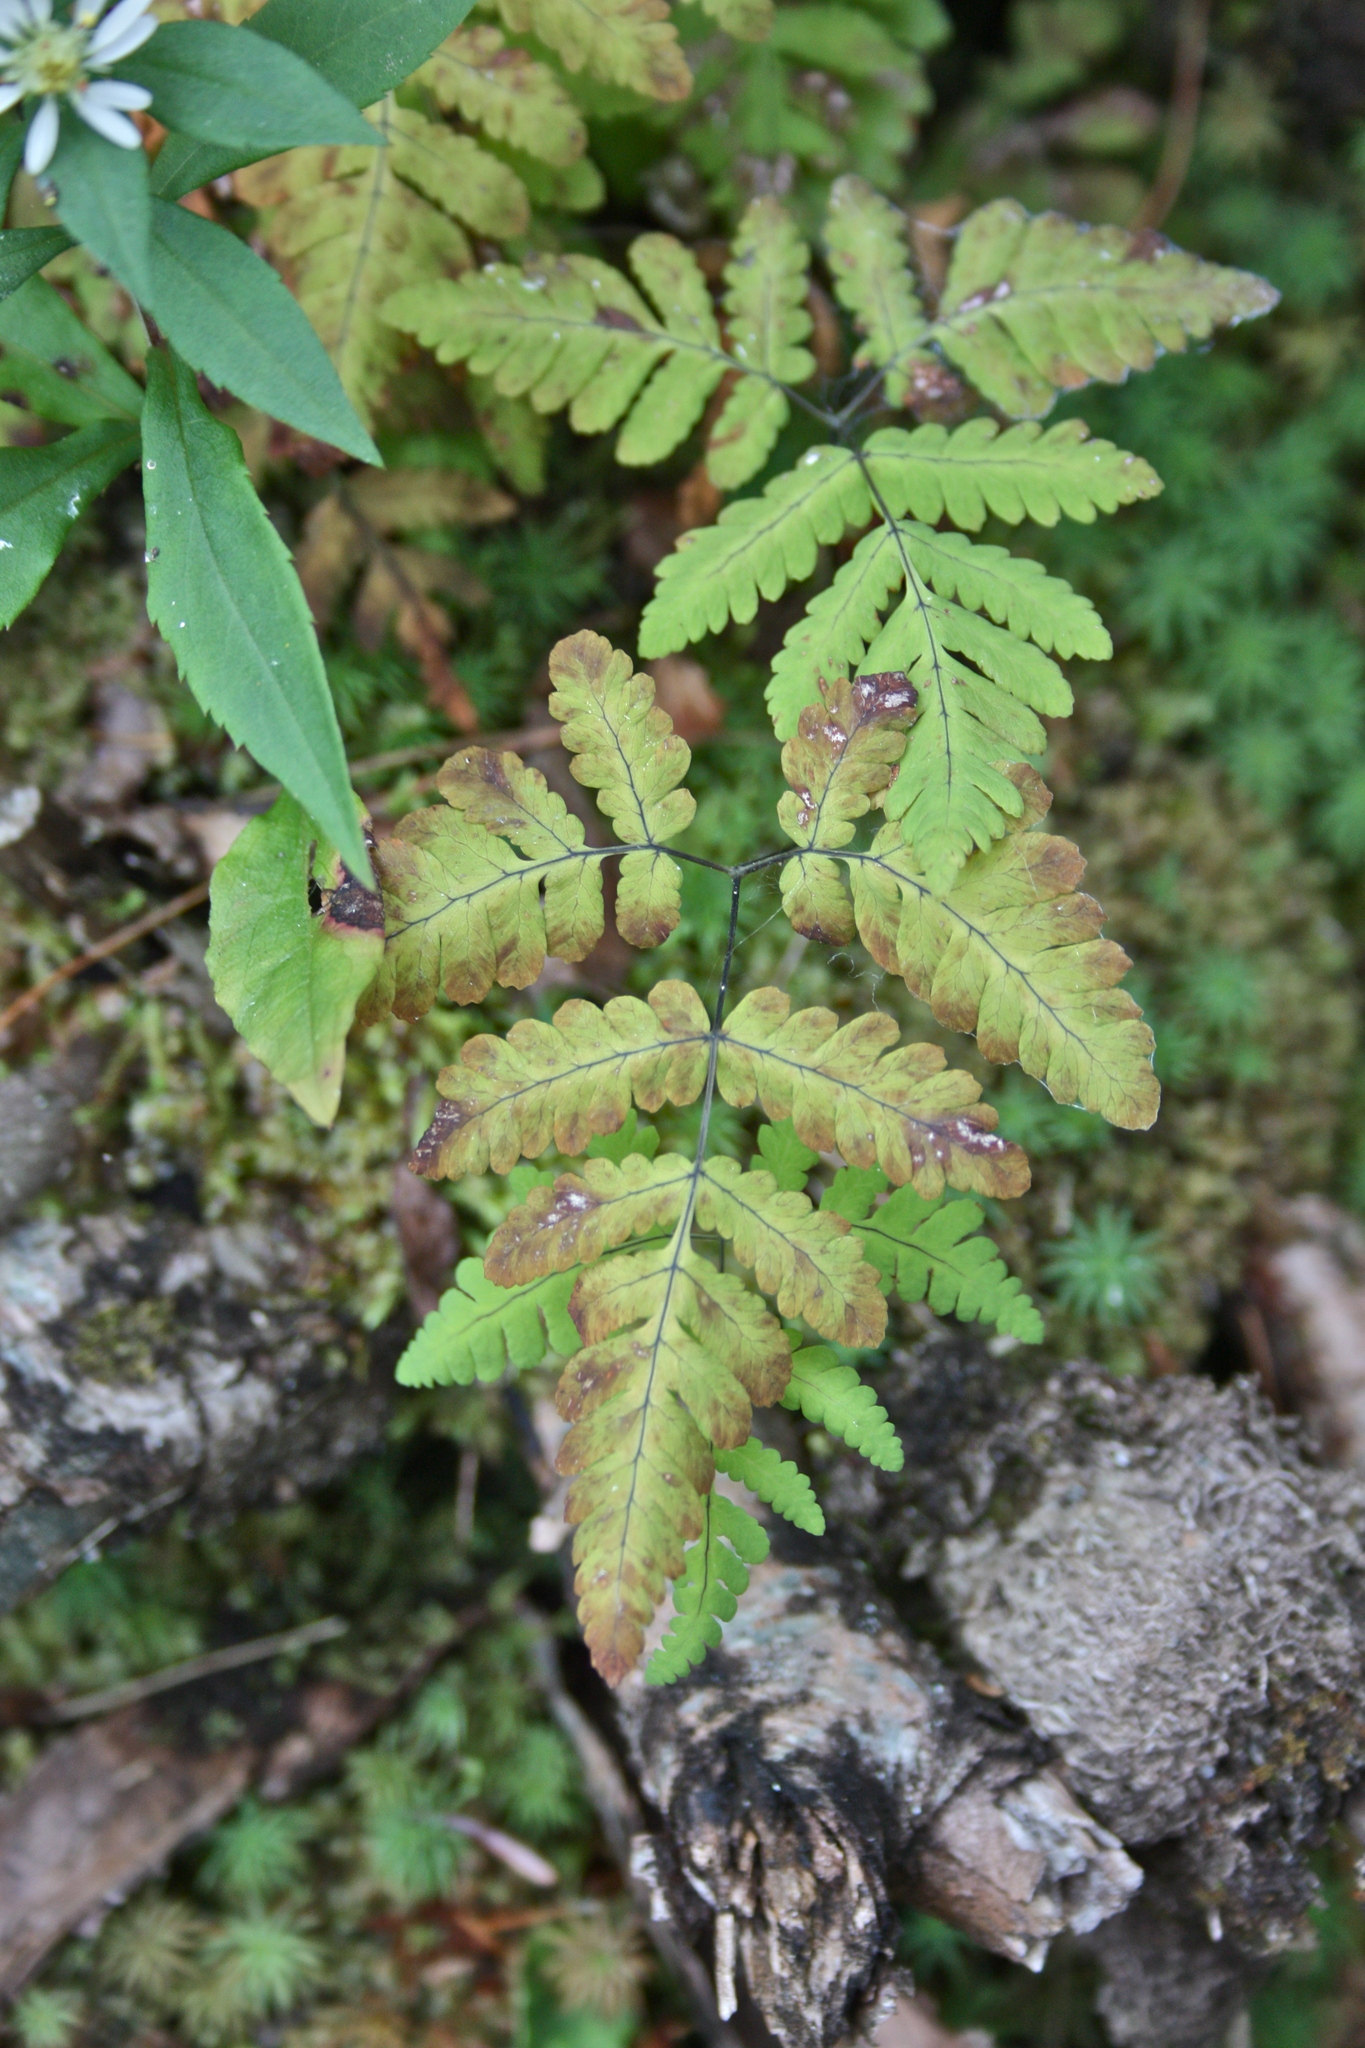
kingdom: Plantae
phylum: Tracheophyta
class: Polypodiopsida
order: Polypodiales
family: Cystopteridaceae
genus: Gymnocarpium
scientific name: Gymnocarpium dryopteris
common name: Oak fern
